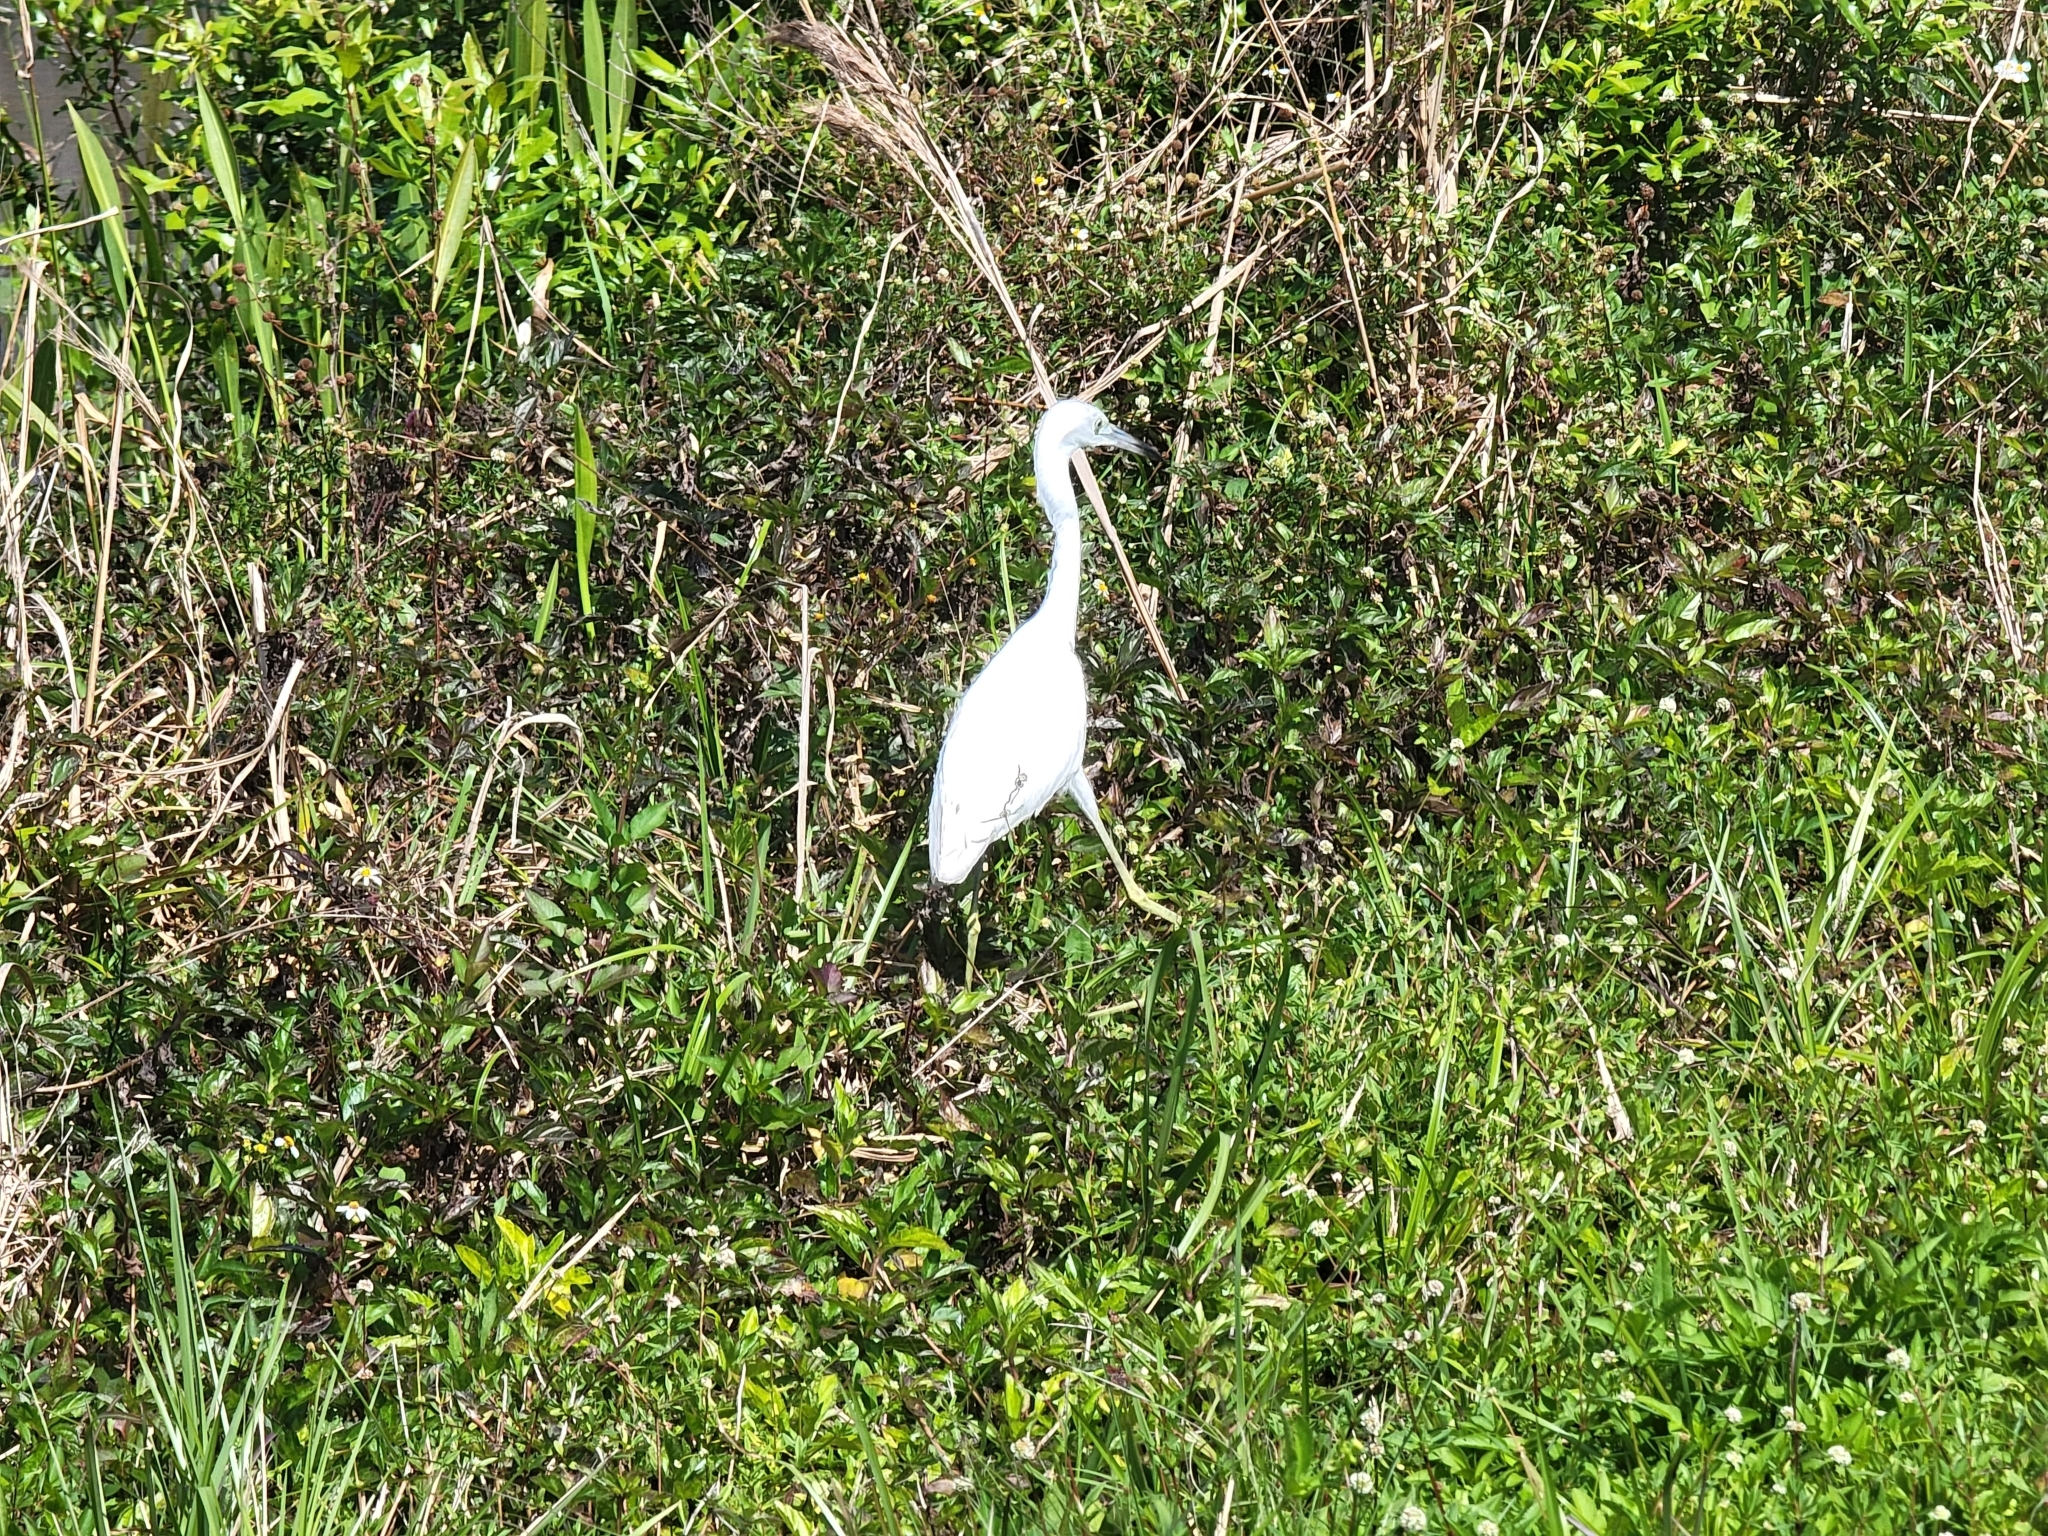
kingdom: Animalia
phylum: Chordata
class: Aves
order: Pelecaniformes
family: Ardeidae
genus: Egretta
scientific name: Egretta caerulea
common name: Little blue heron
